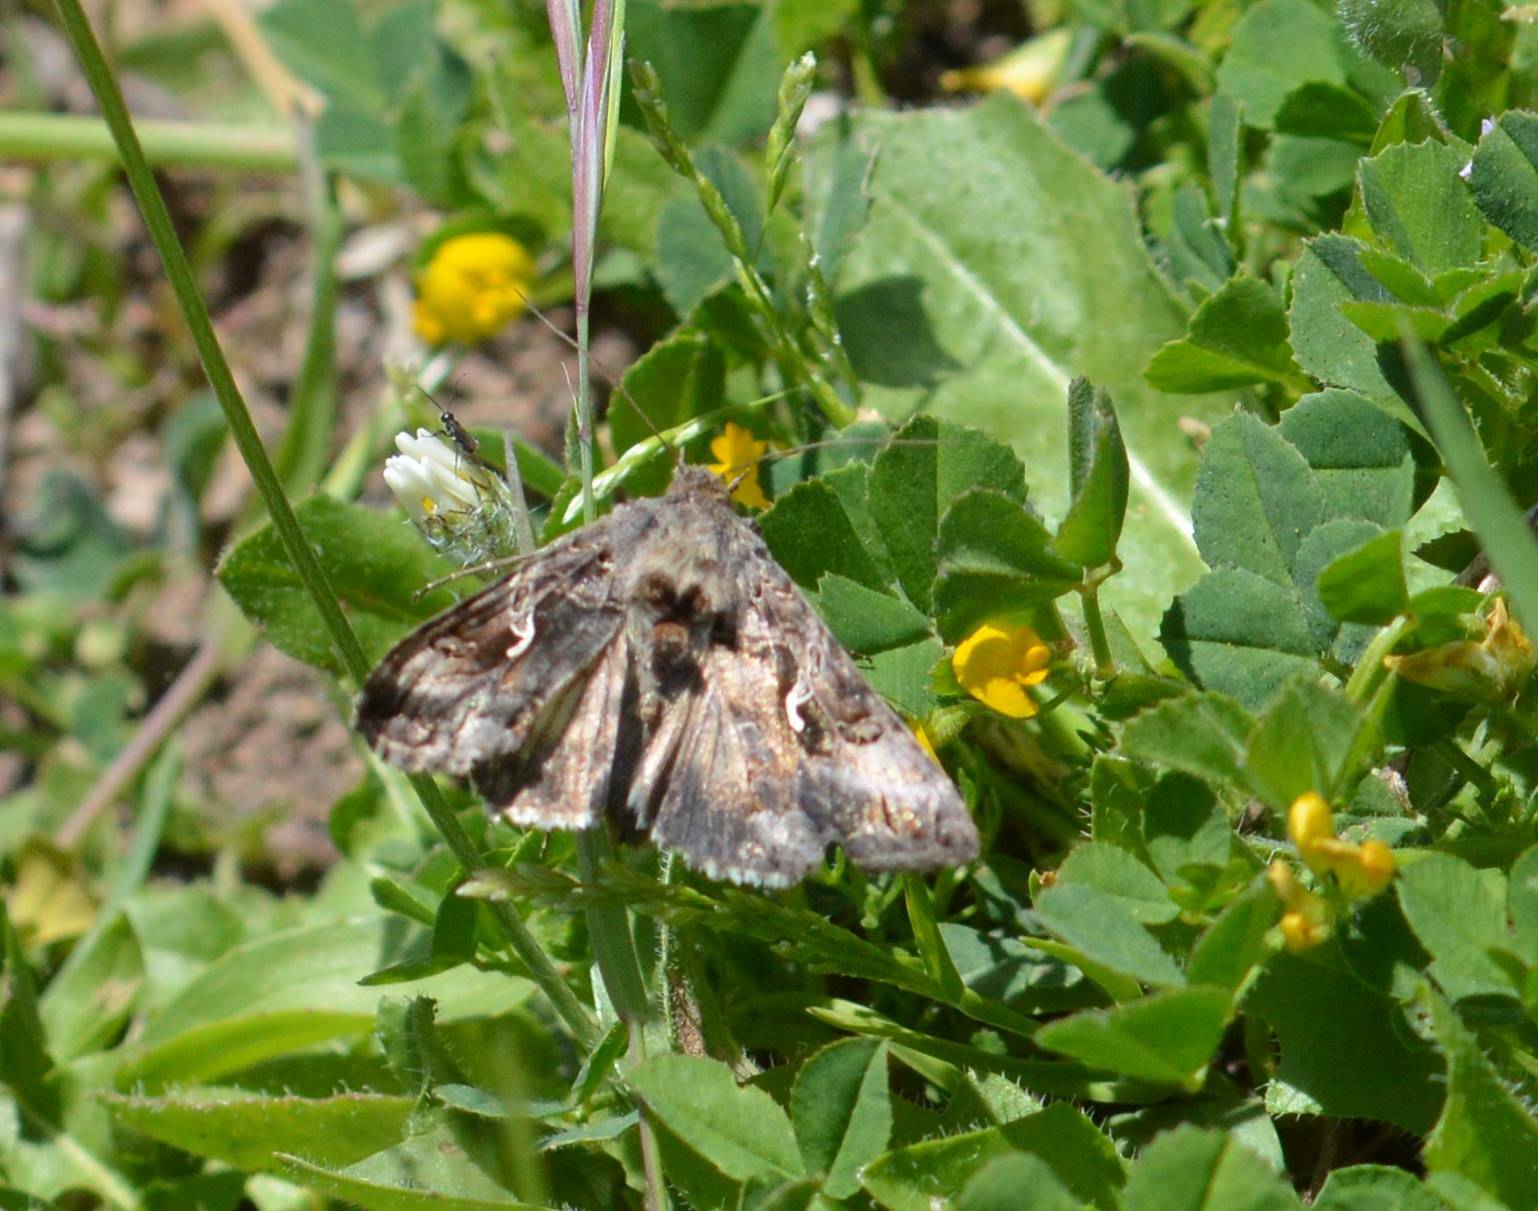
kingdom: Animalia
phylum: Arthropoda
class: Insecta
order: Lepidoptera
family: Noctuidae
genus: Autographa
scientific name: Autographa gamma
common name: Silver y
